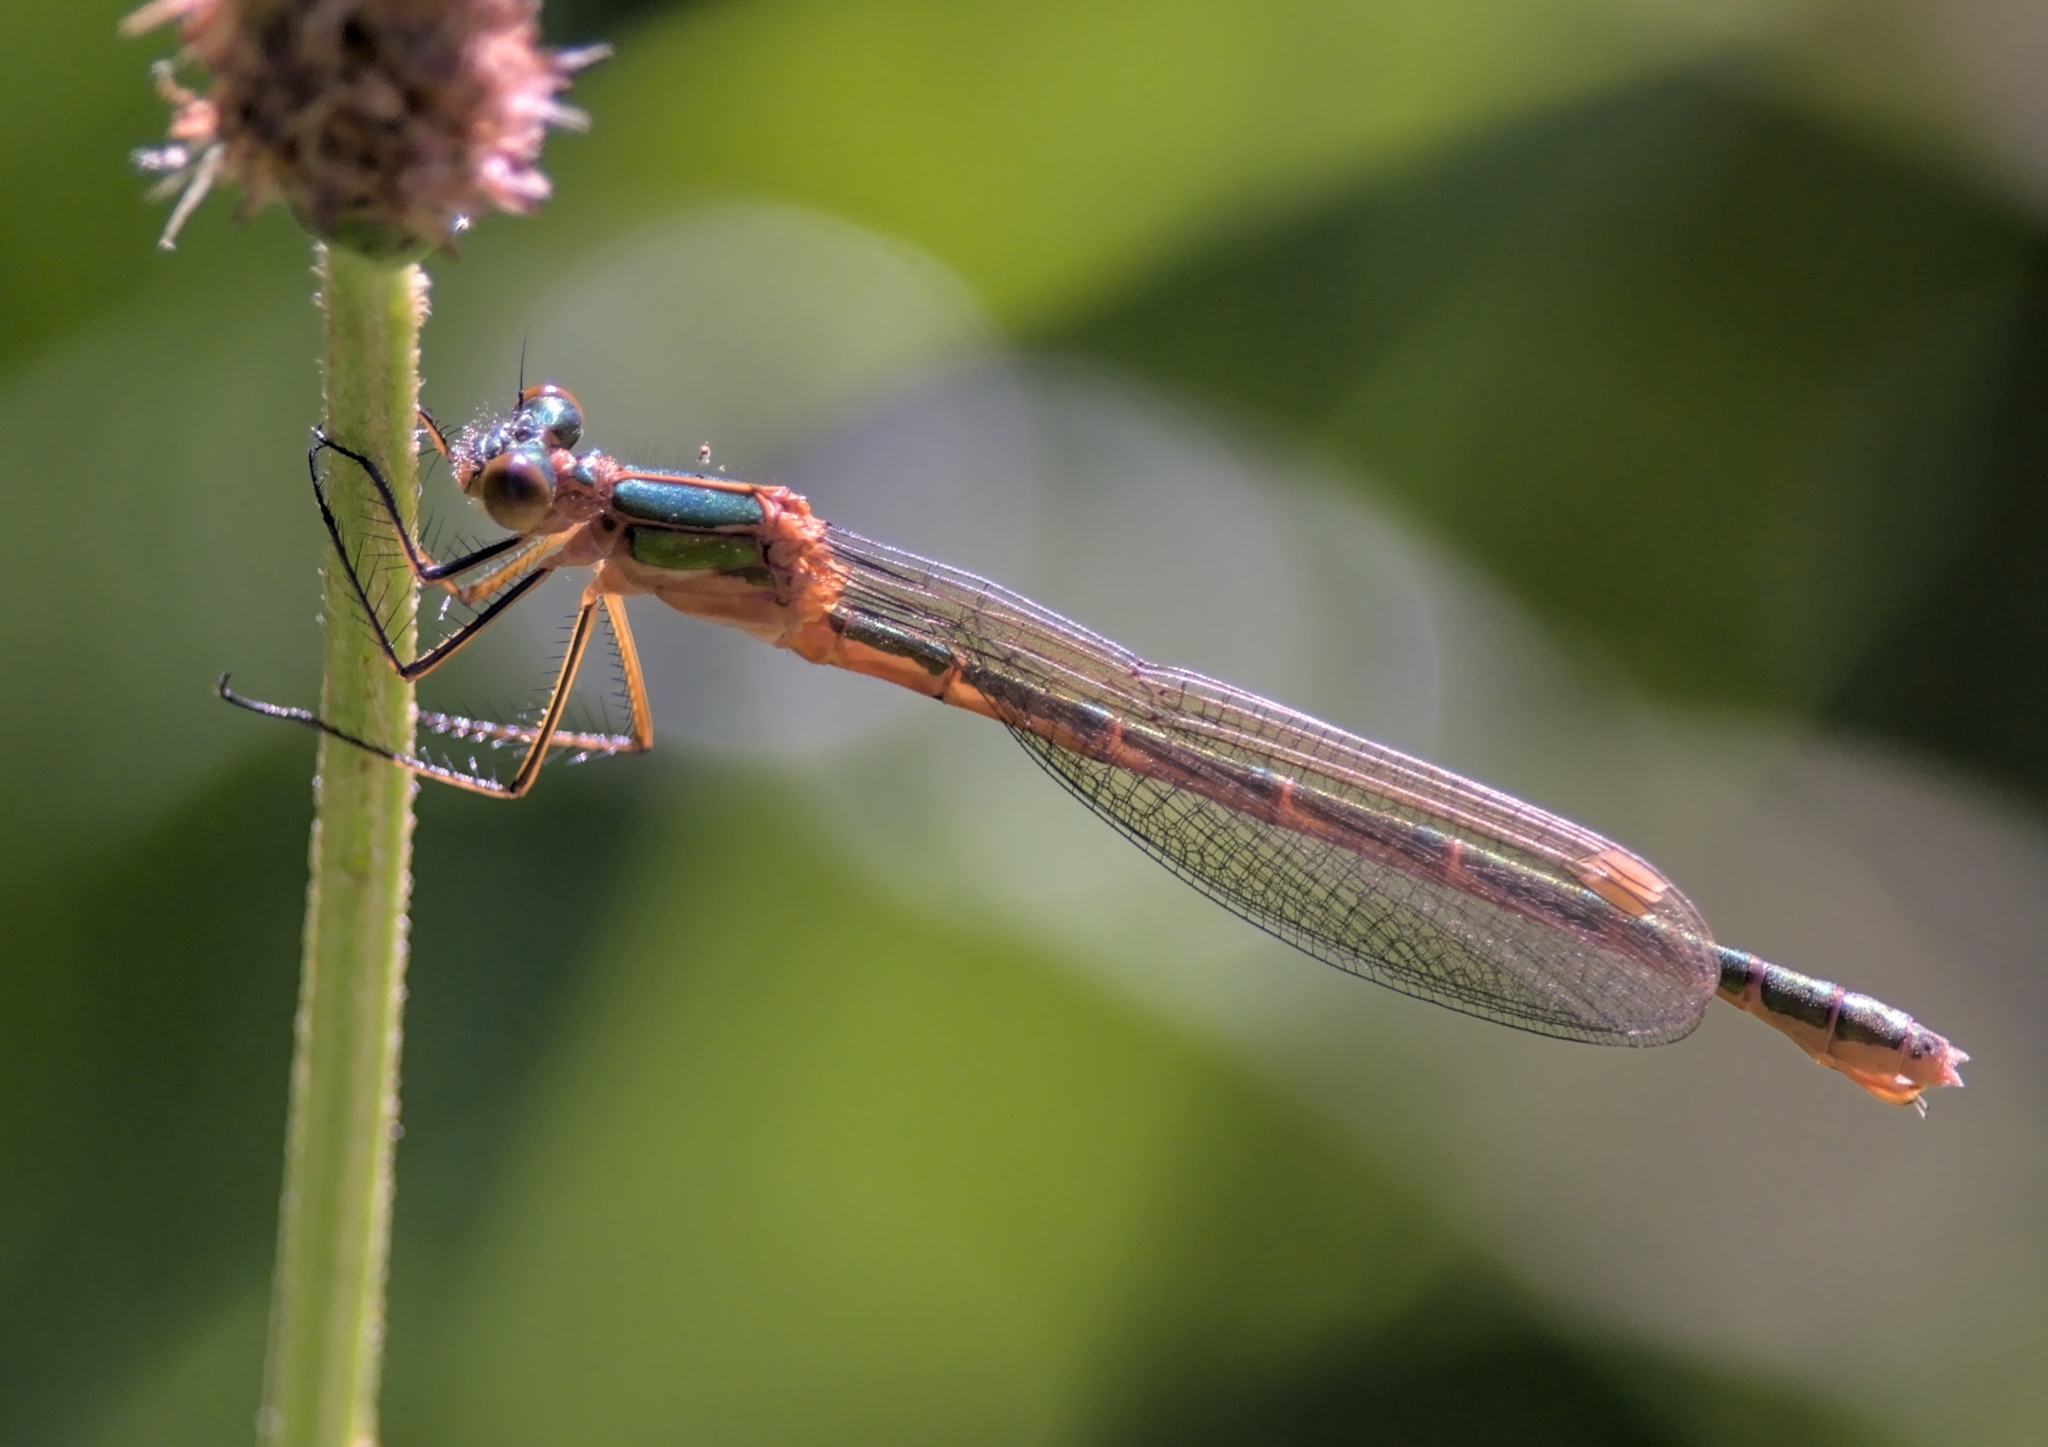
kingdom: Animalia
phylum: Arthropoda
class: Insecta
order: Odonata
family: Lestidae
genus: Lestes
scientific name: Lestes sponsa
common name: Common spreadwing
